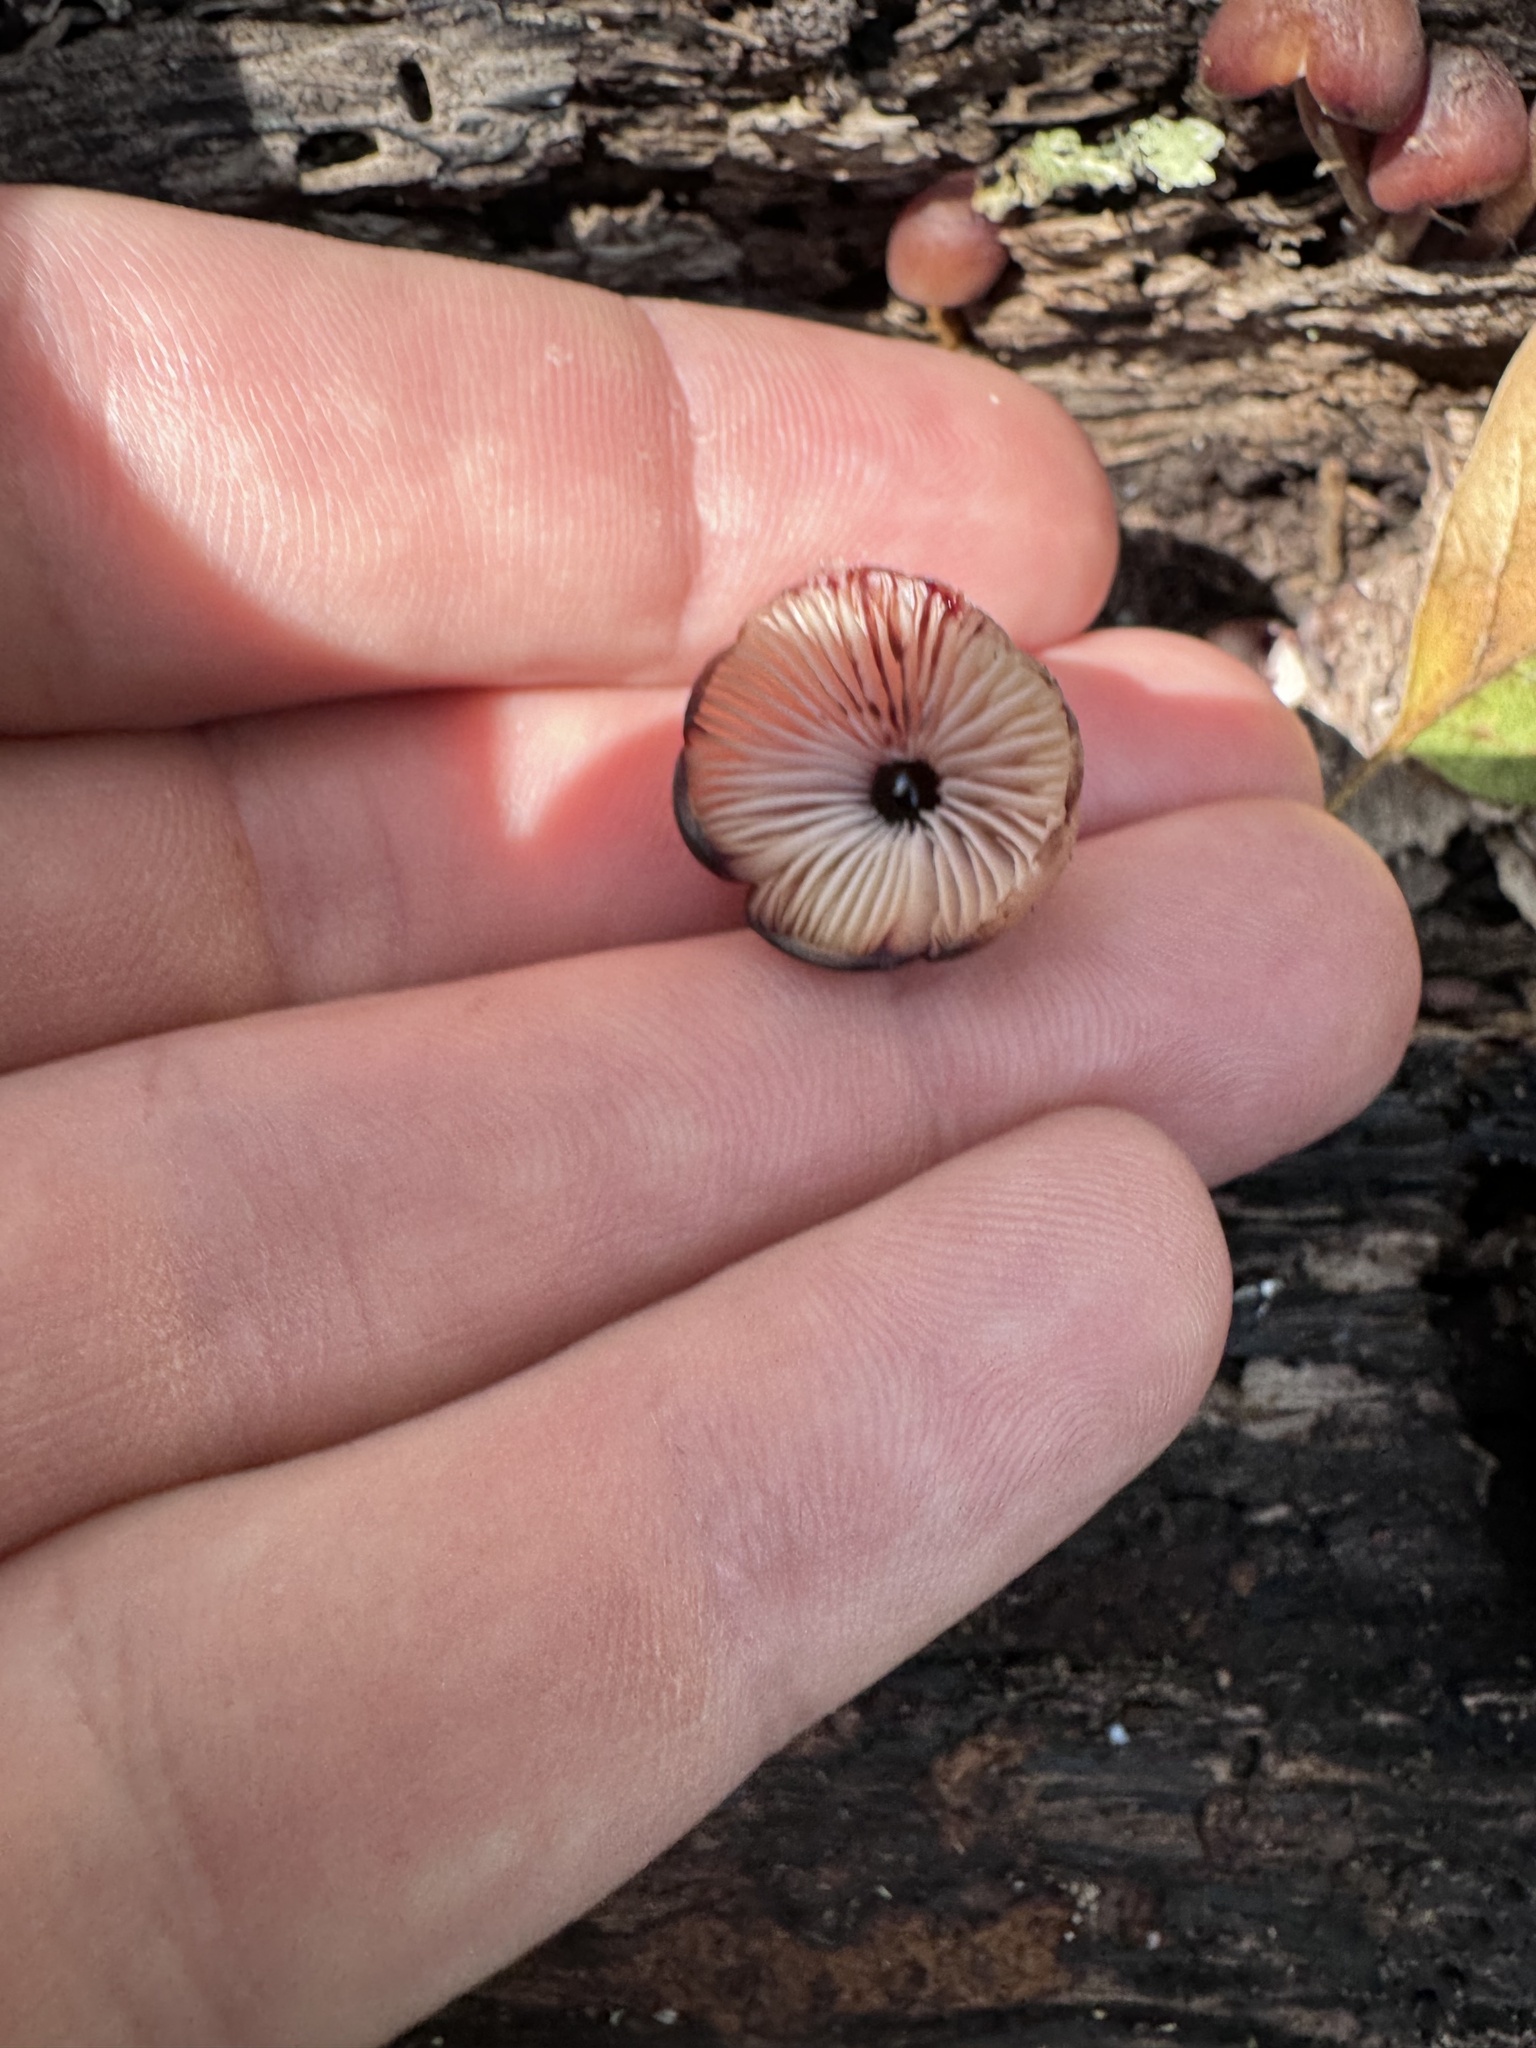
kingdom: Fungi
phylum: Basidiomycota
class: Agaricomycetes
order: Agaricales
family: Mycenaceae
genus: Mycena
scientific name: Mycena haematopus
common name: Burgundydrop bonnet
